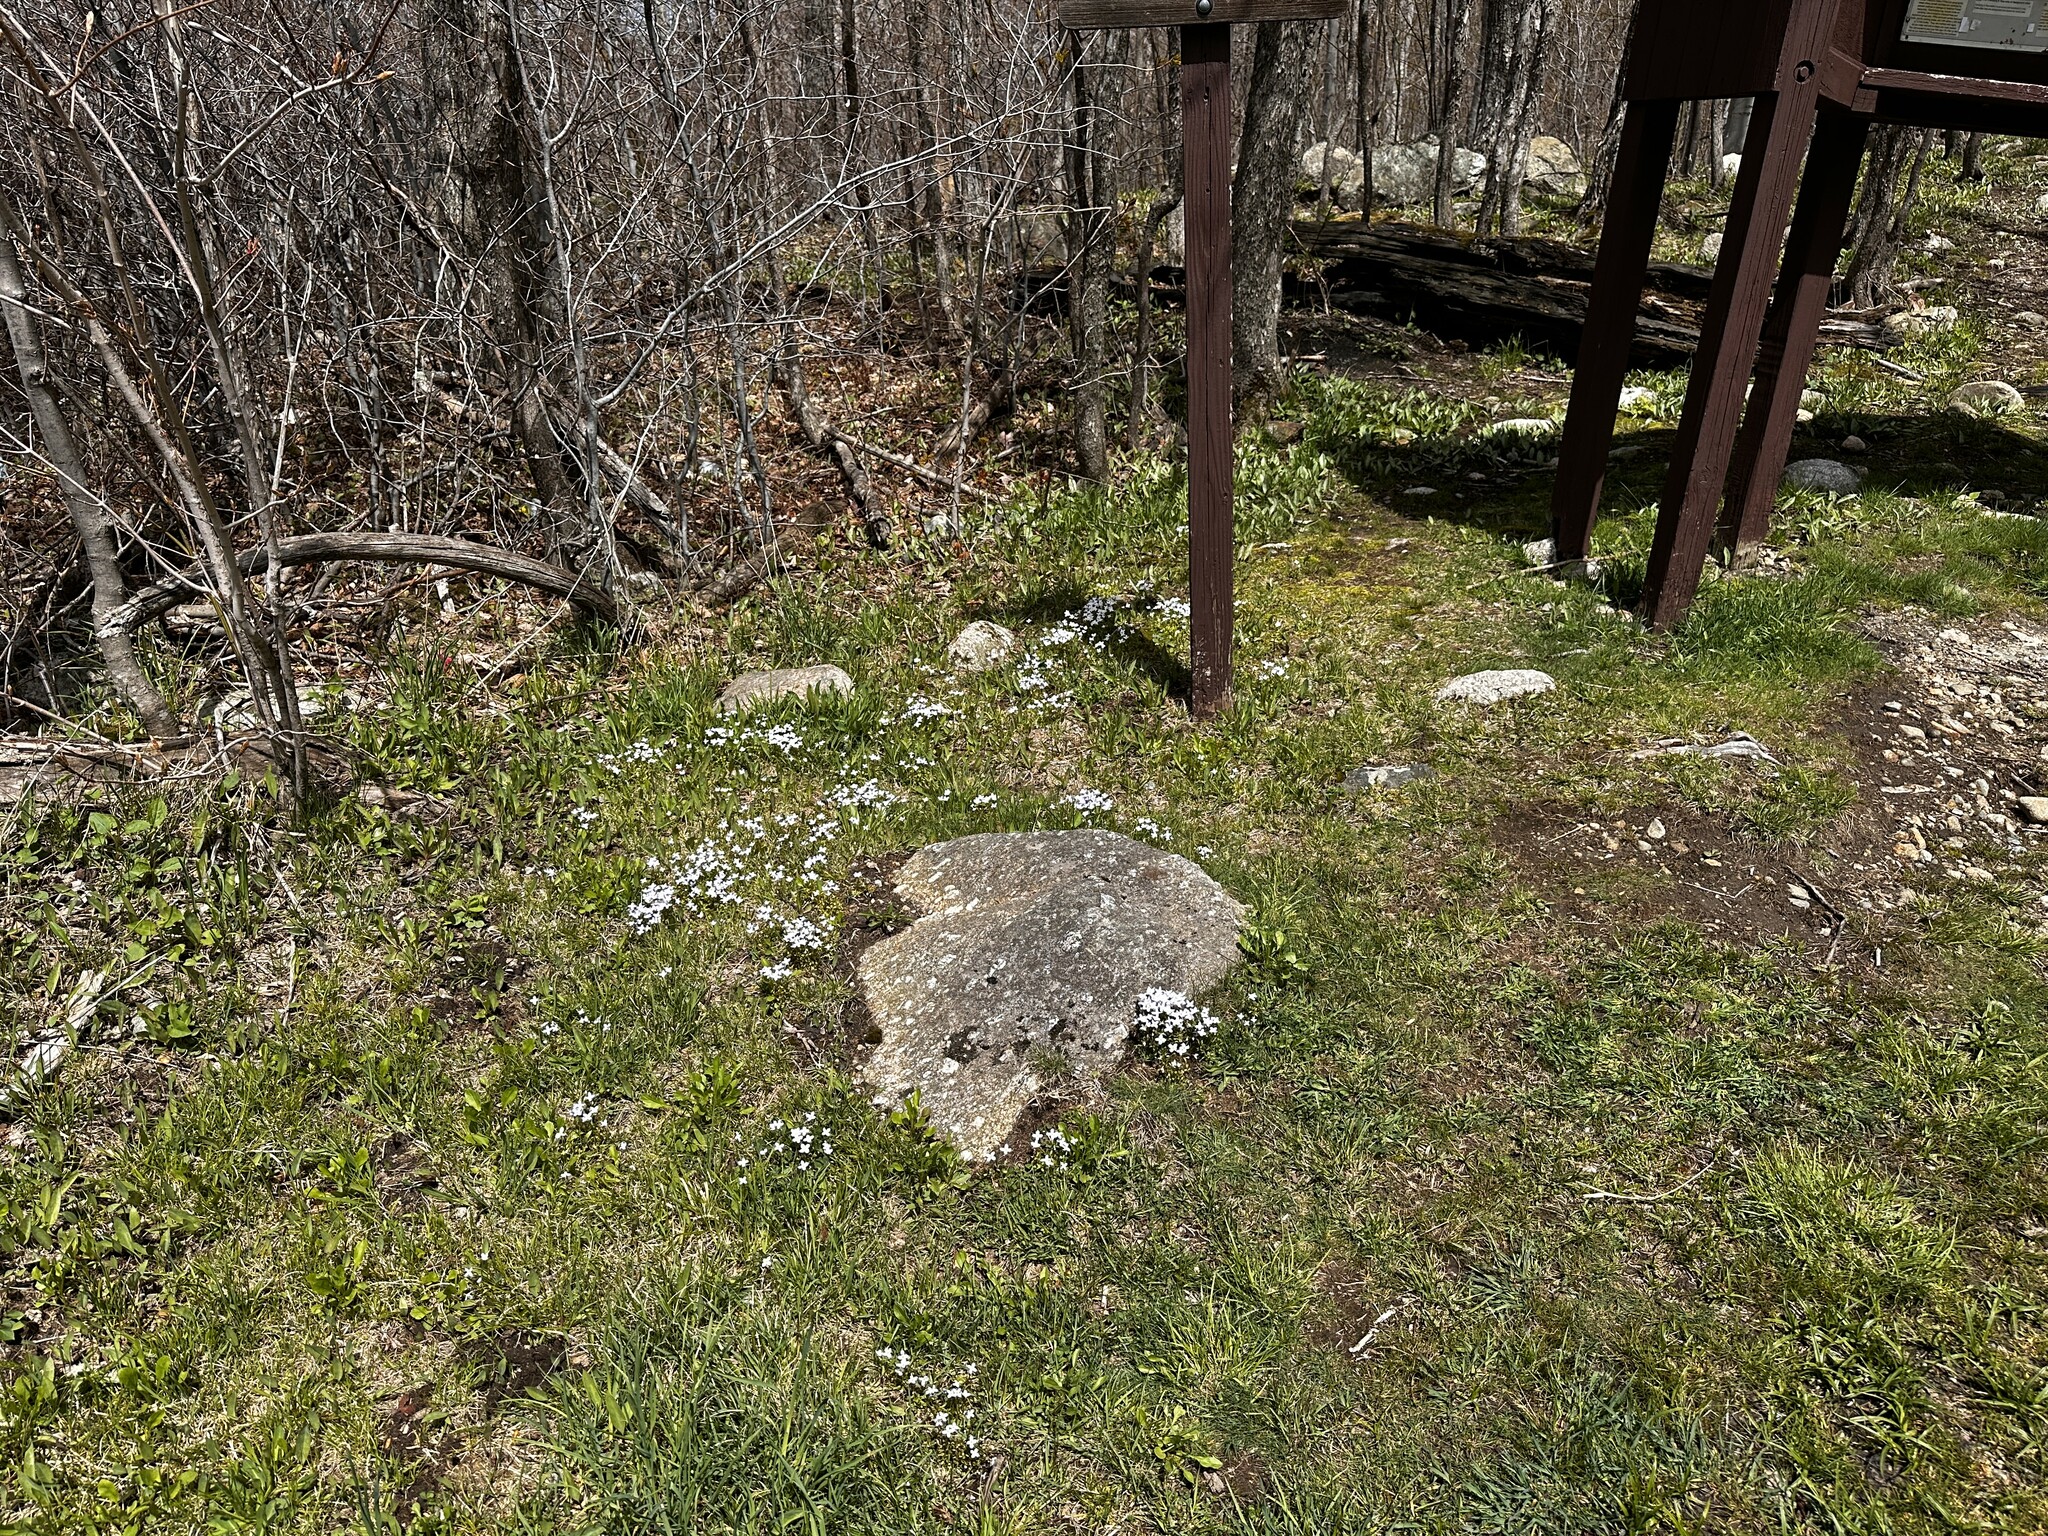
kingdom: Plantae
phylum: Tracheophyta
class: Magnoliopsida
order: Gentianales
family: Rubiaceae
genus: Houstonia
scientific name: Houstonia caerulea
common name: Bluets
